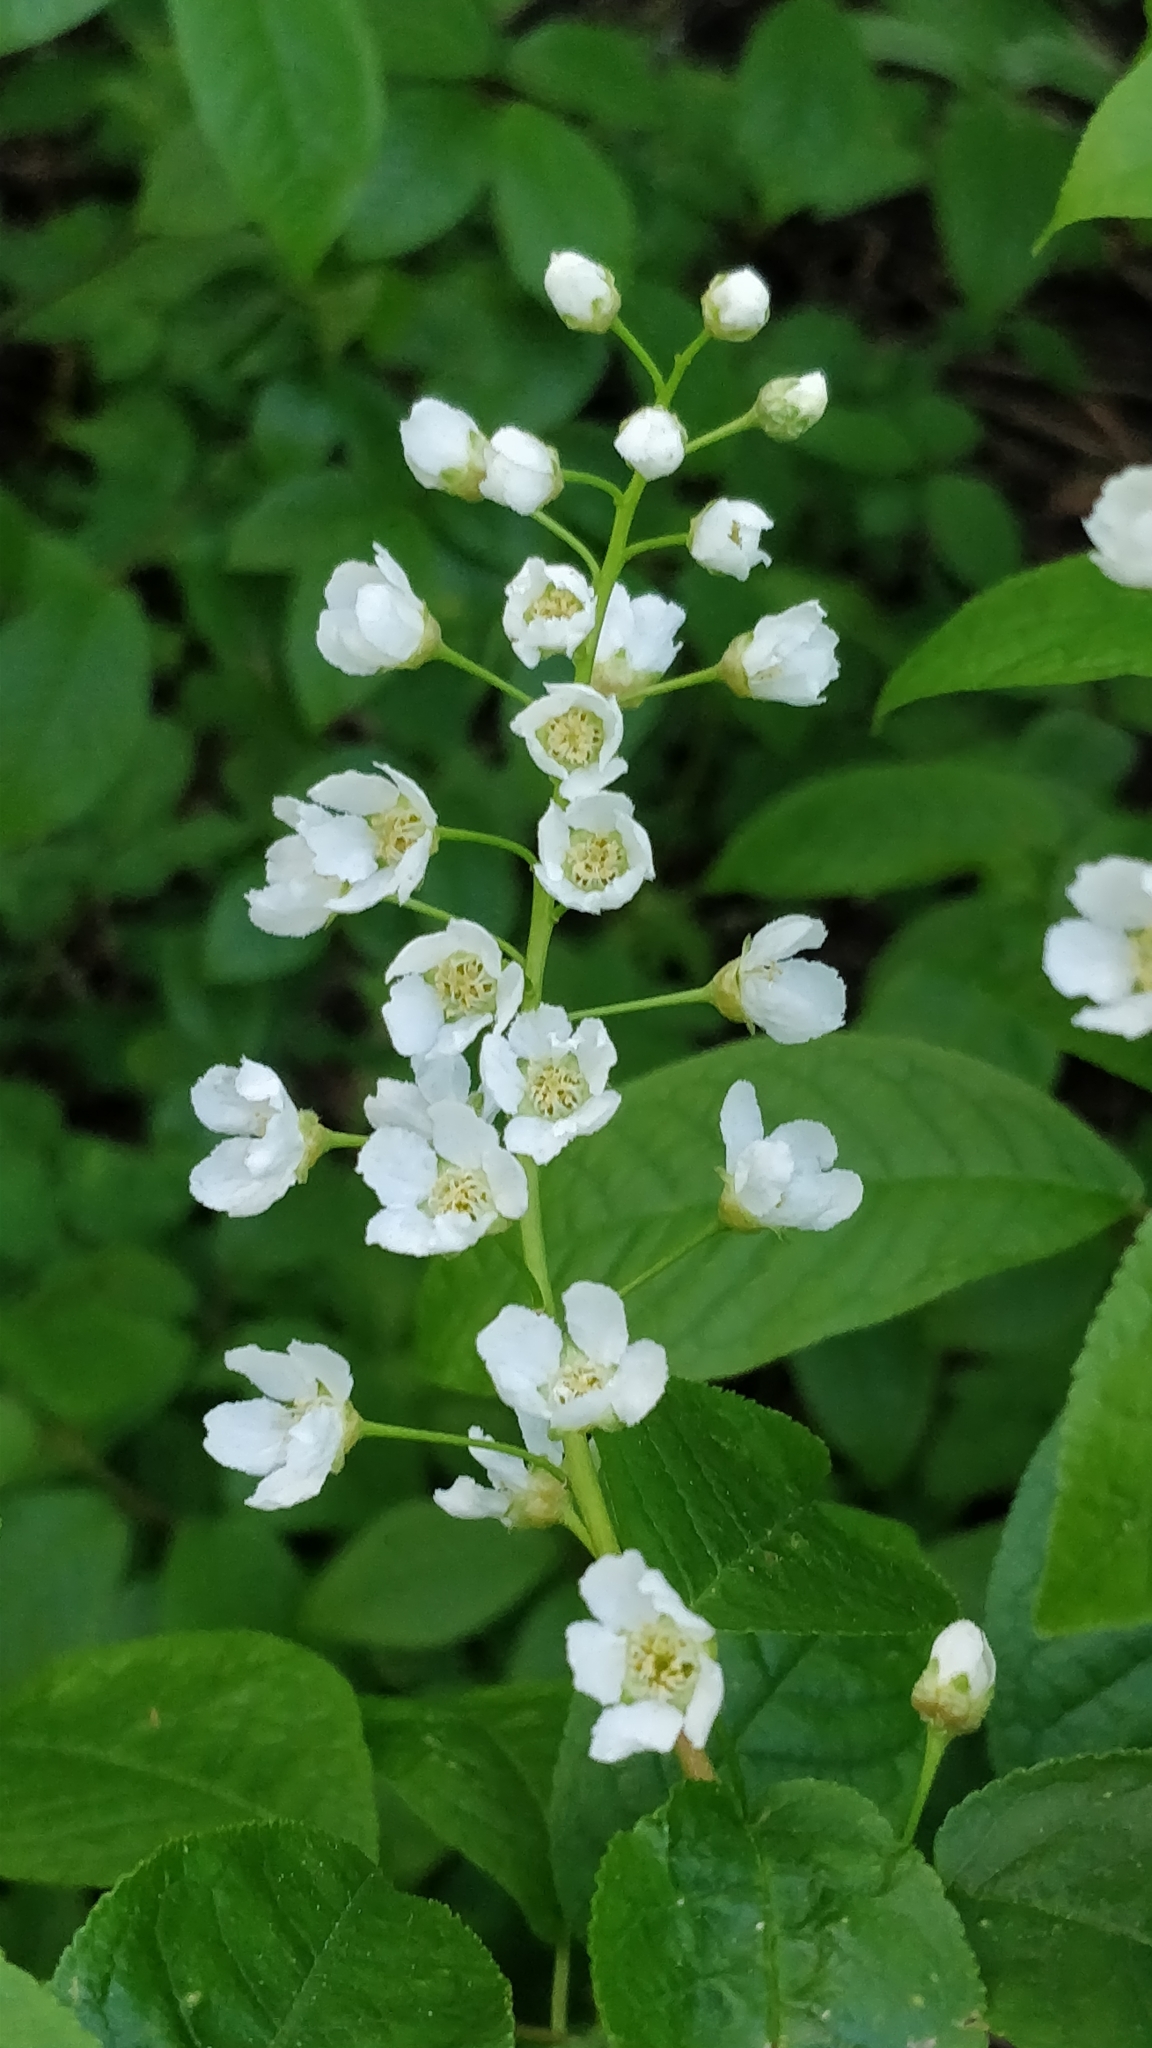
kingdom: Plantae
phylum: Tracheophyta
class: Magnoliopsida
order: Rosales
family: Rosaceae
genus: Prunus
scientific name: Prunus padus
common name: Bird cherry
